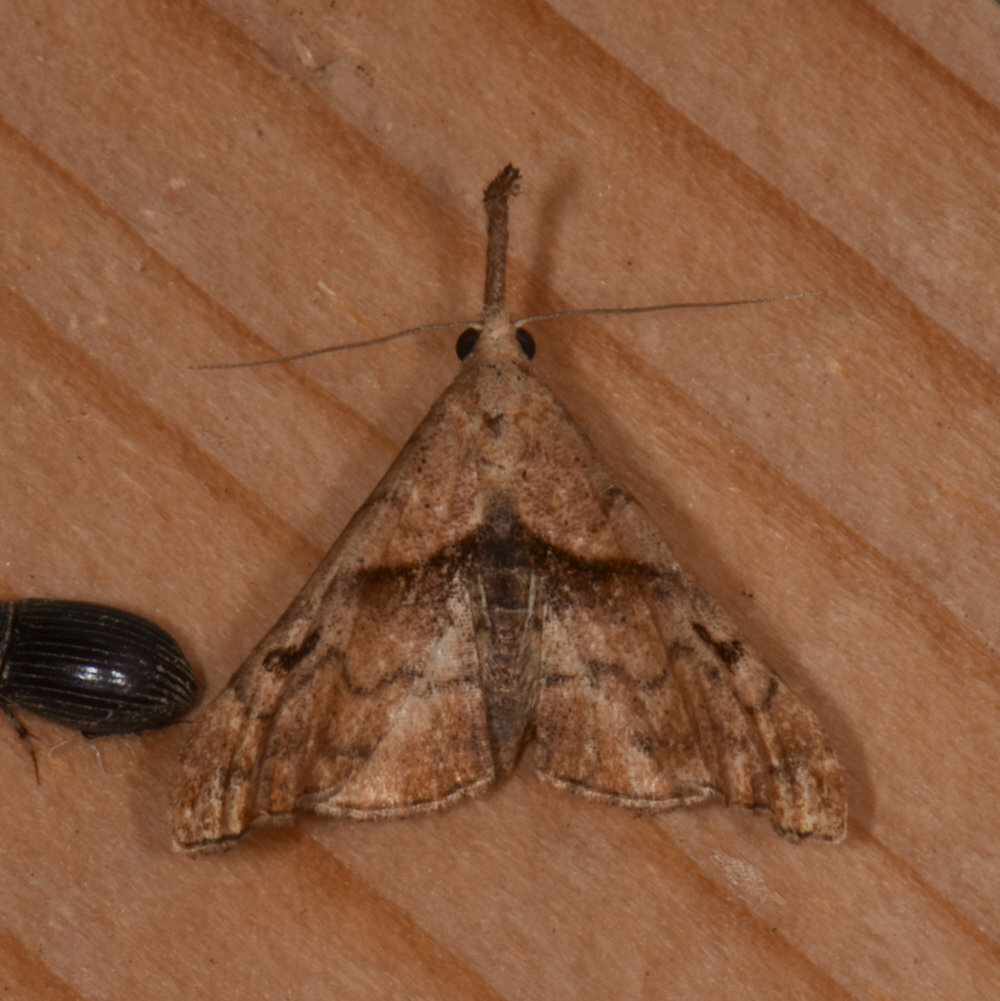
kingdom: Animalia
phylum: Arthropoda
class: Insecta
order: Lepidoptera
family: Erebidae
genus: Palthis
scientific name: Palthis angulalis
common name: Dark-spotted palthis moth
